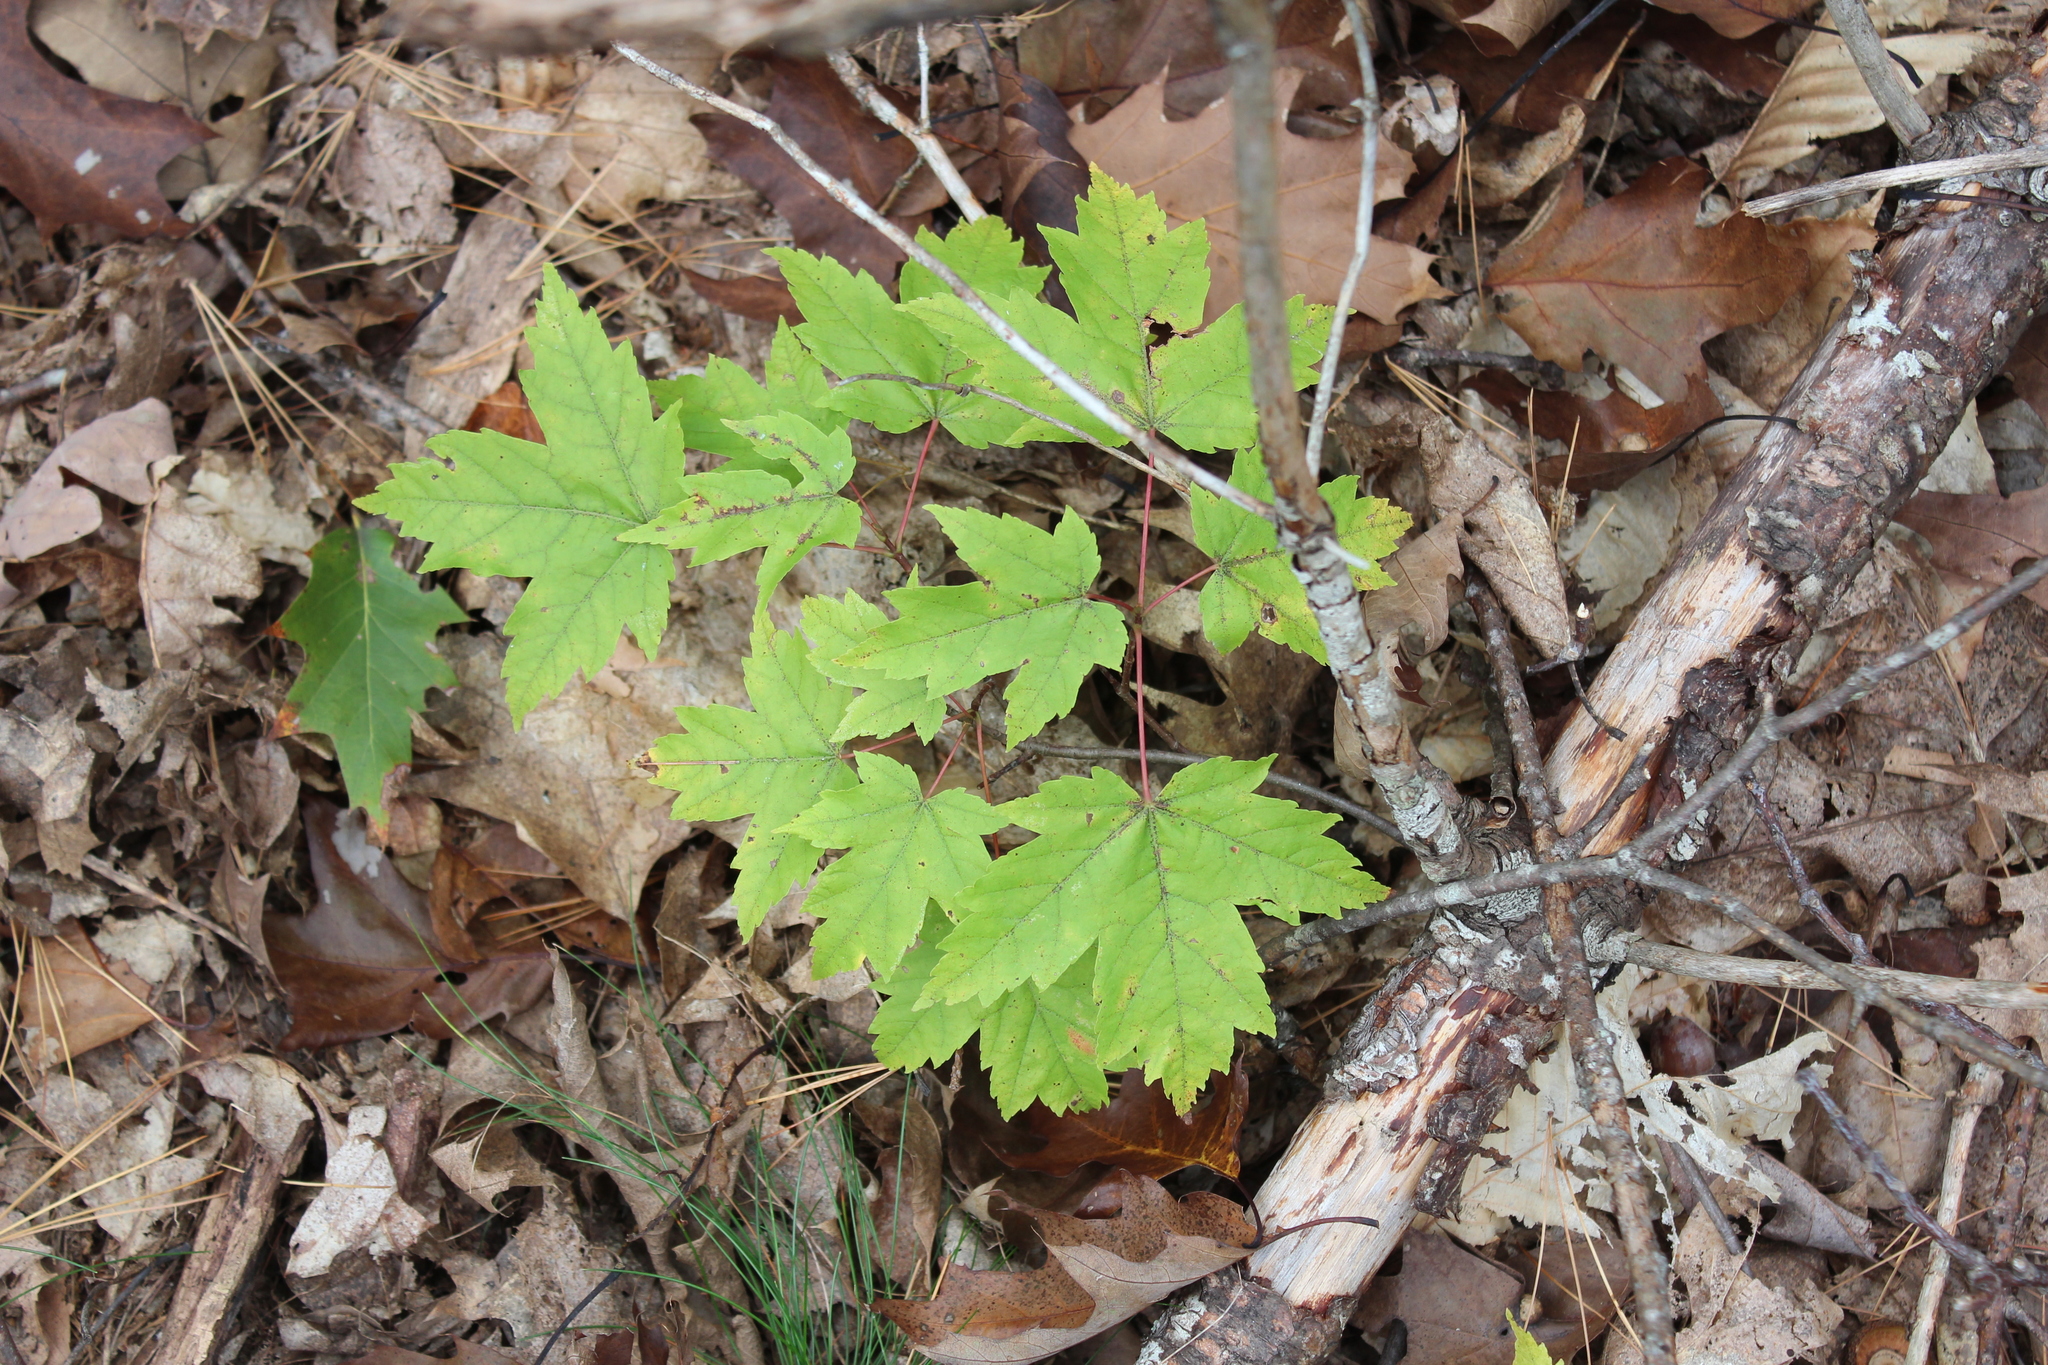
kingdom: Plantae
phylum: Tracheophyta
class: Magnoliopsida
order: Sapindales
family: Sapindaceae
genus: Acer
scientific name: Acer rubrum
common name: Red maple
